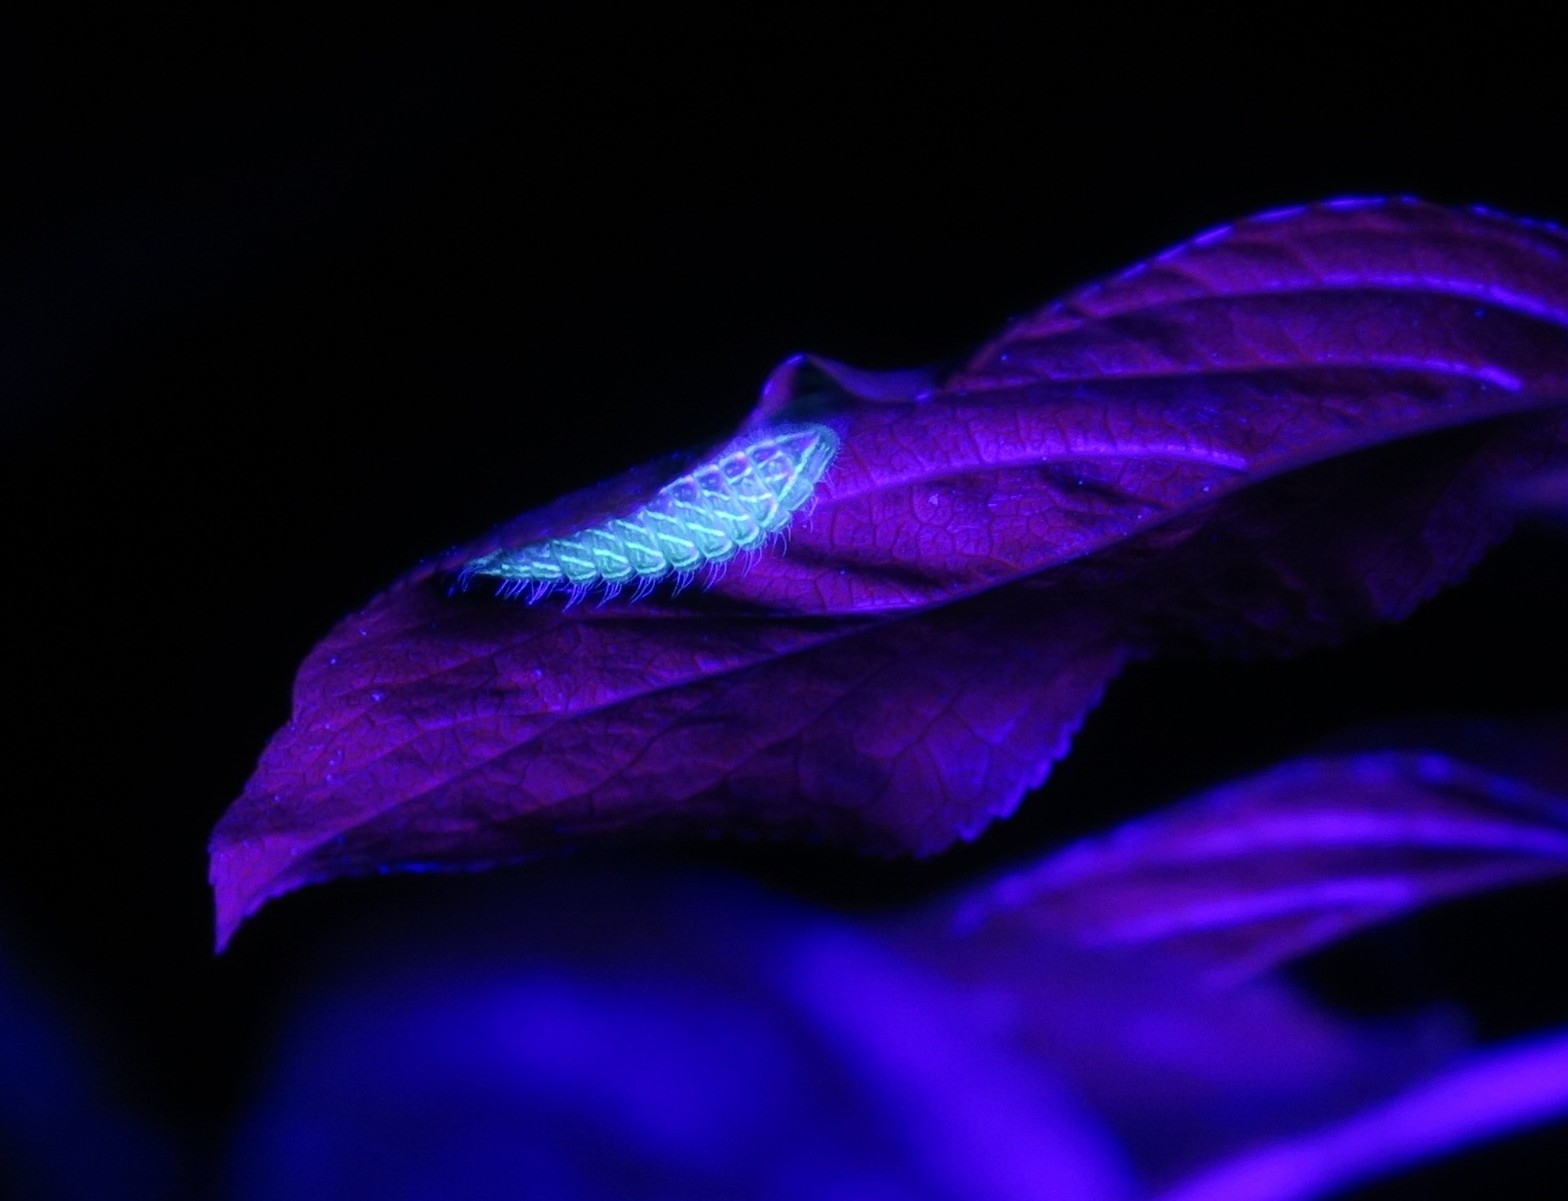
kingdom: Animalia
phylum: Arthropoda
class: Insecta
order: Lepidoptera
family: Lycaenidae
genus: Thecla
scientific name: Thecla betulae
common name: Brown hairstreak
